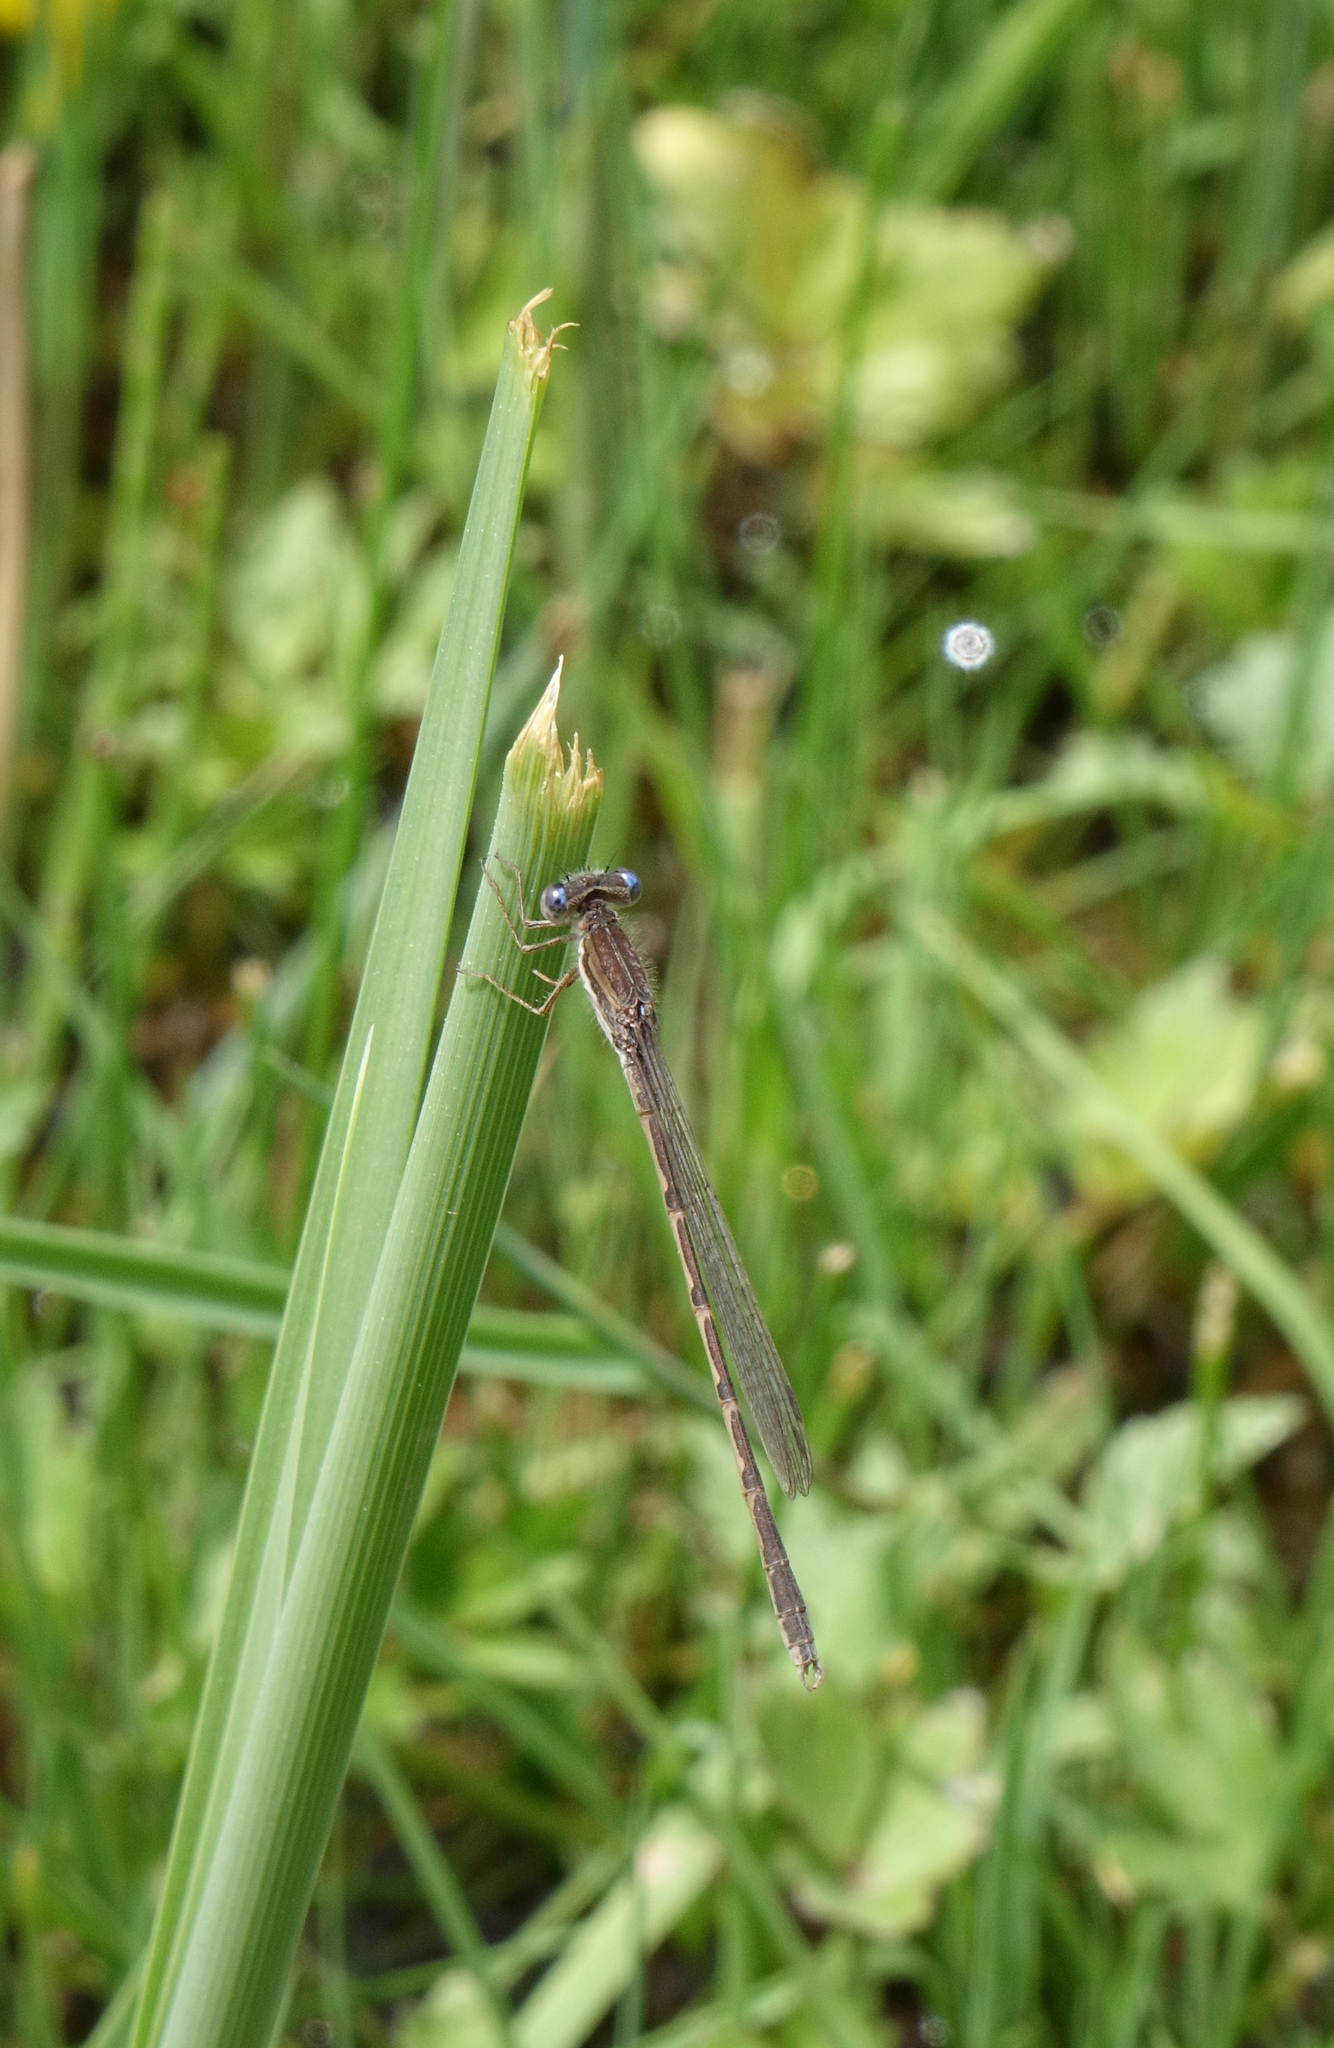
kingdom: Animalia
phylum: Arthropoda
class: Insecta
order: Odonata
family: Lestidae
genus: Sympecma
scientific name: Sympecma fusca
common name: Common winter damsel
